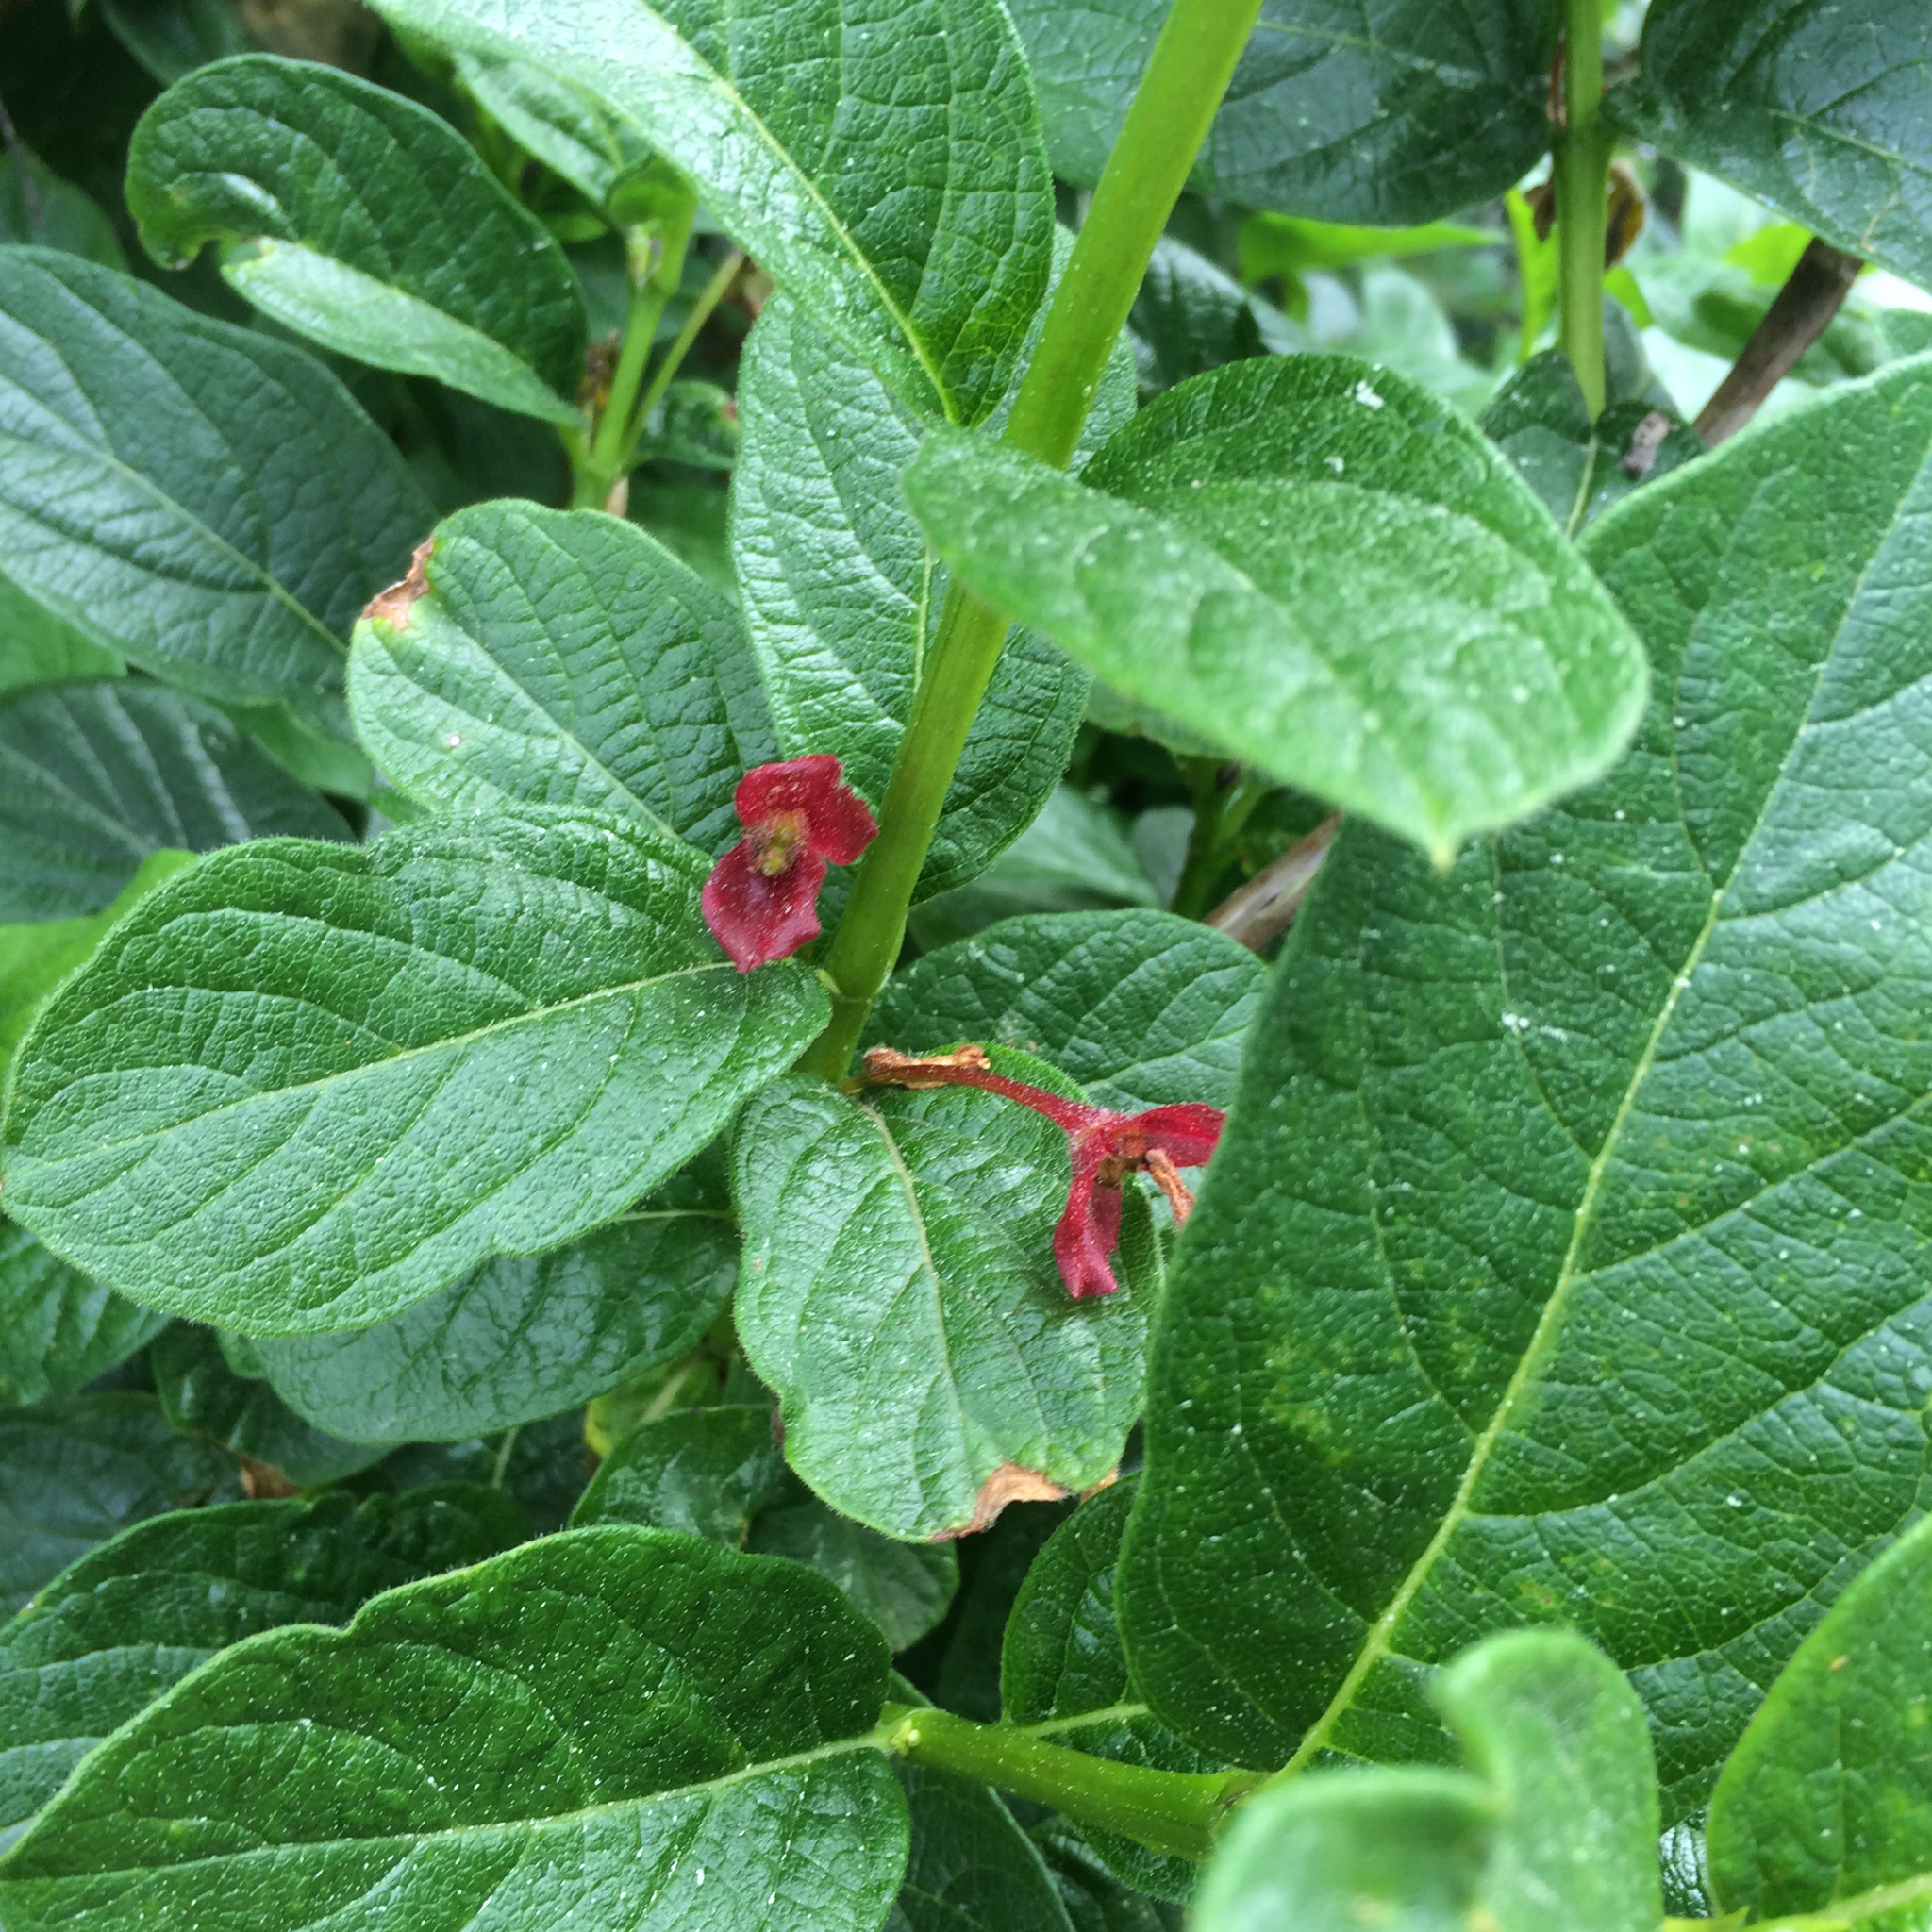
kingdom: Plantae
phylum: Tracheophyta
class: Magnoliopsida
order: Dipsacales
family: Caprifoliaceae
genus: Lonicera
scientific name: Lonicera involucrata
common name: Californian honeysuckle
